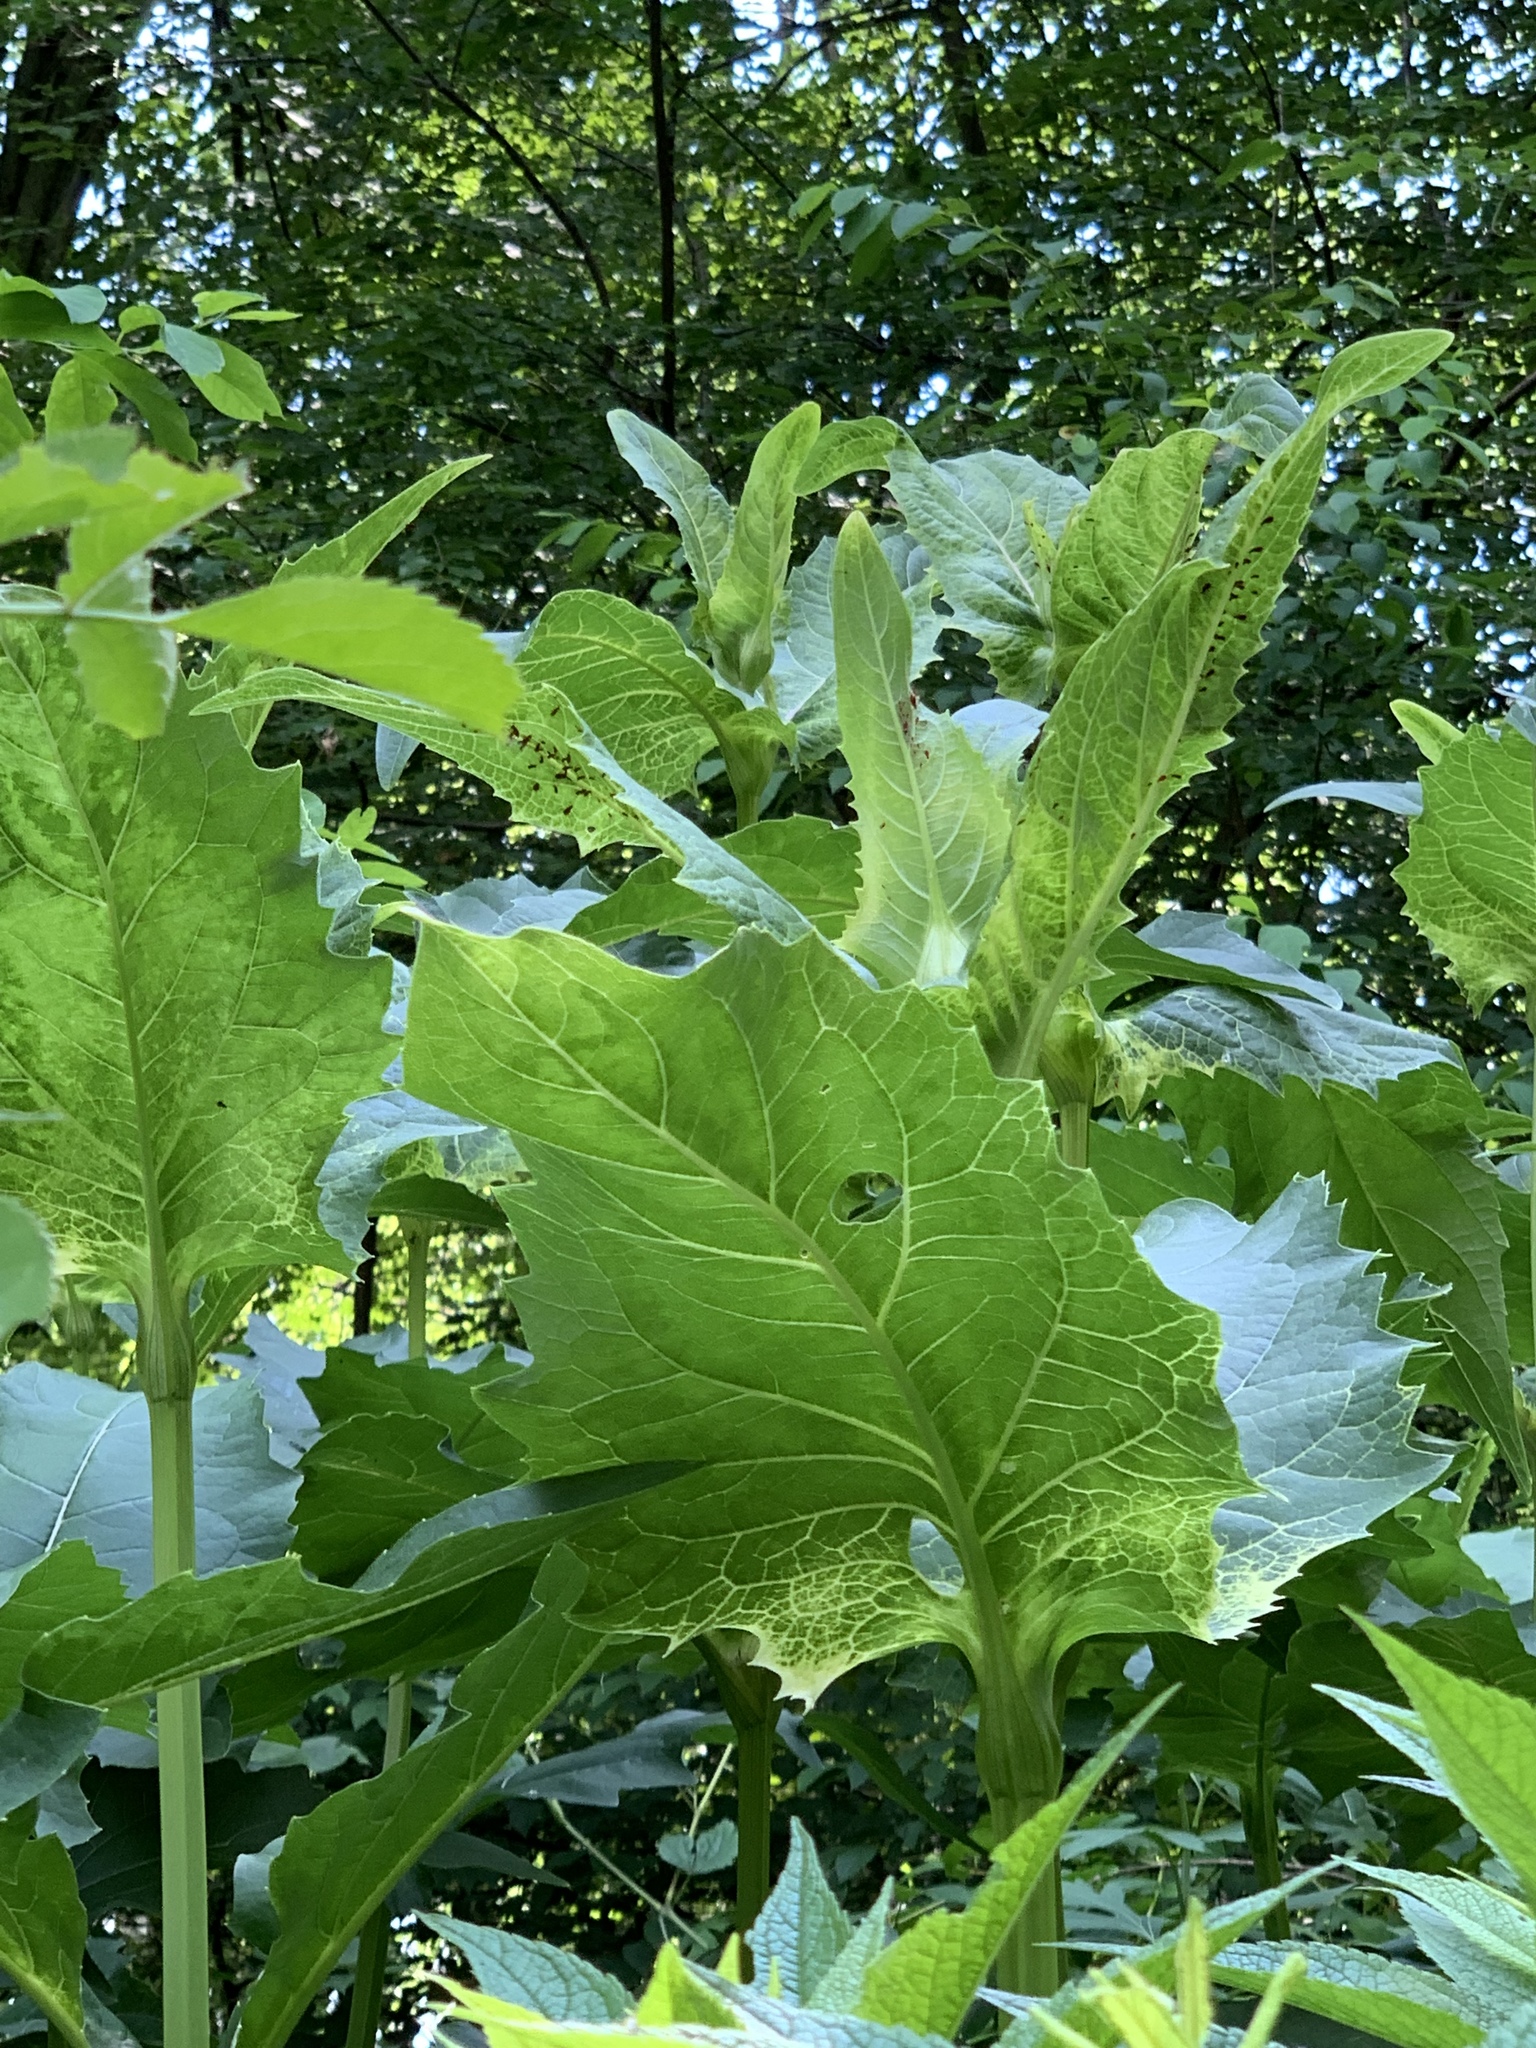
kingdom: Plantae
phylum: Tracheophyta
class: Magnoliopsida
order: Asterales
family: Asteraceae
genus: Silphium
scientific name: Silphium perfoliatum
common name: Cup-plant
